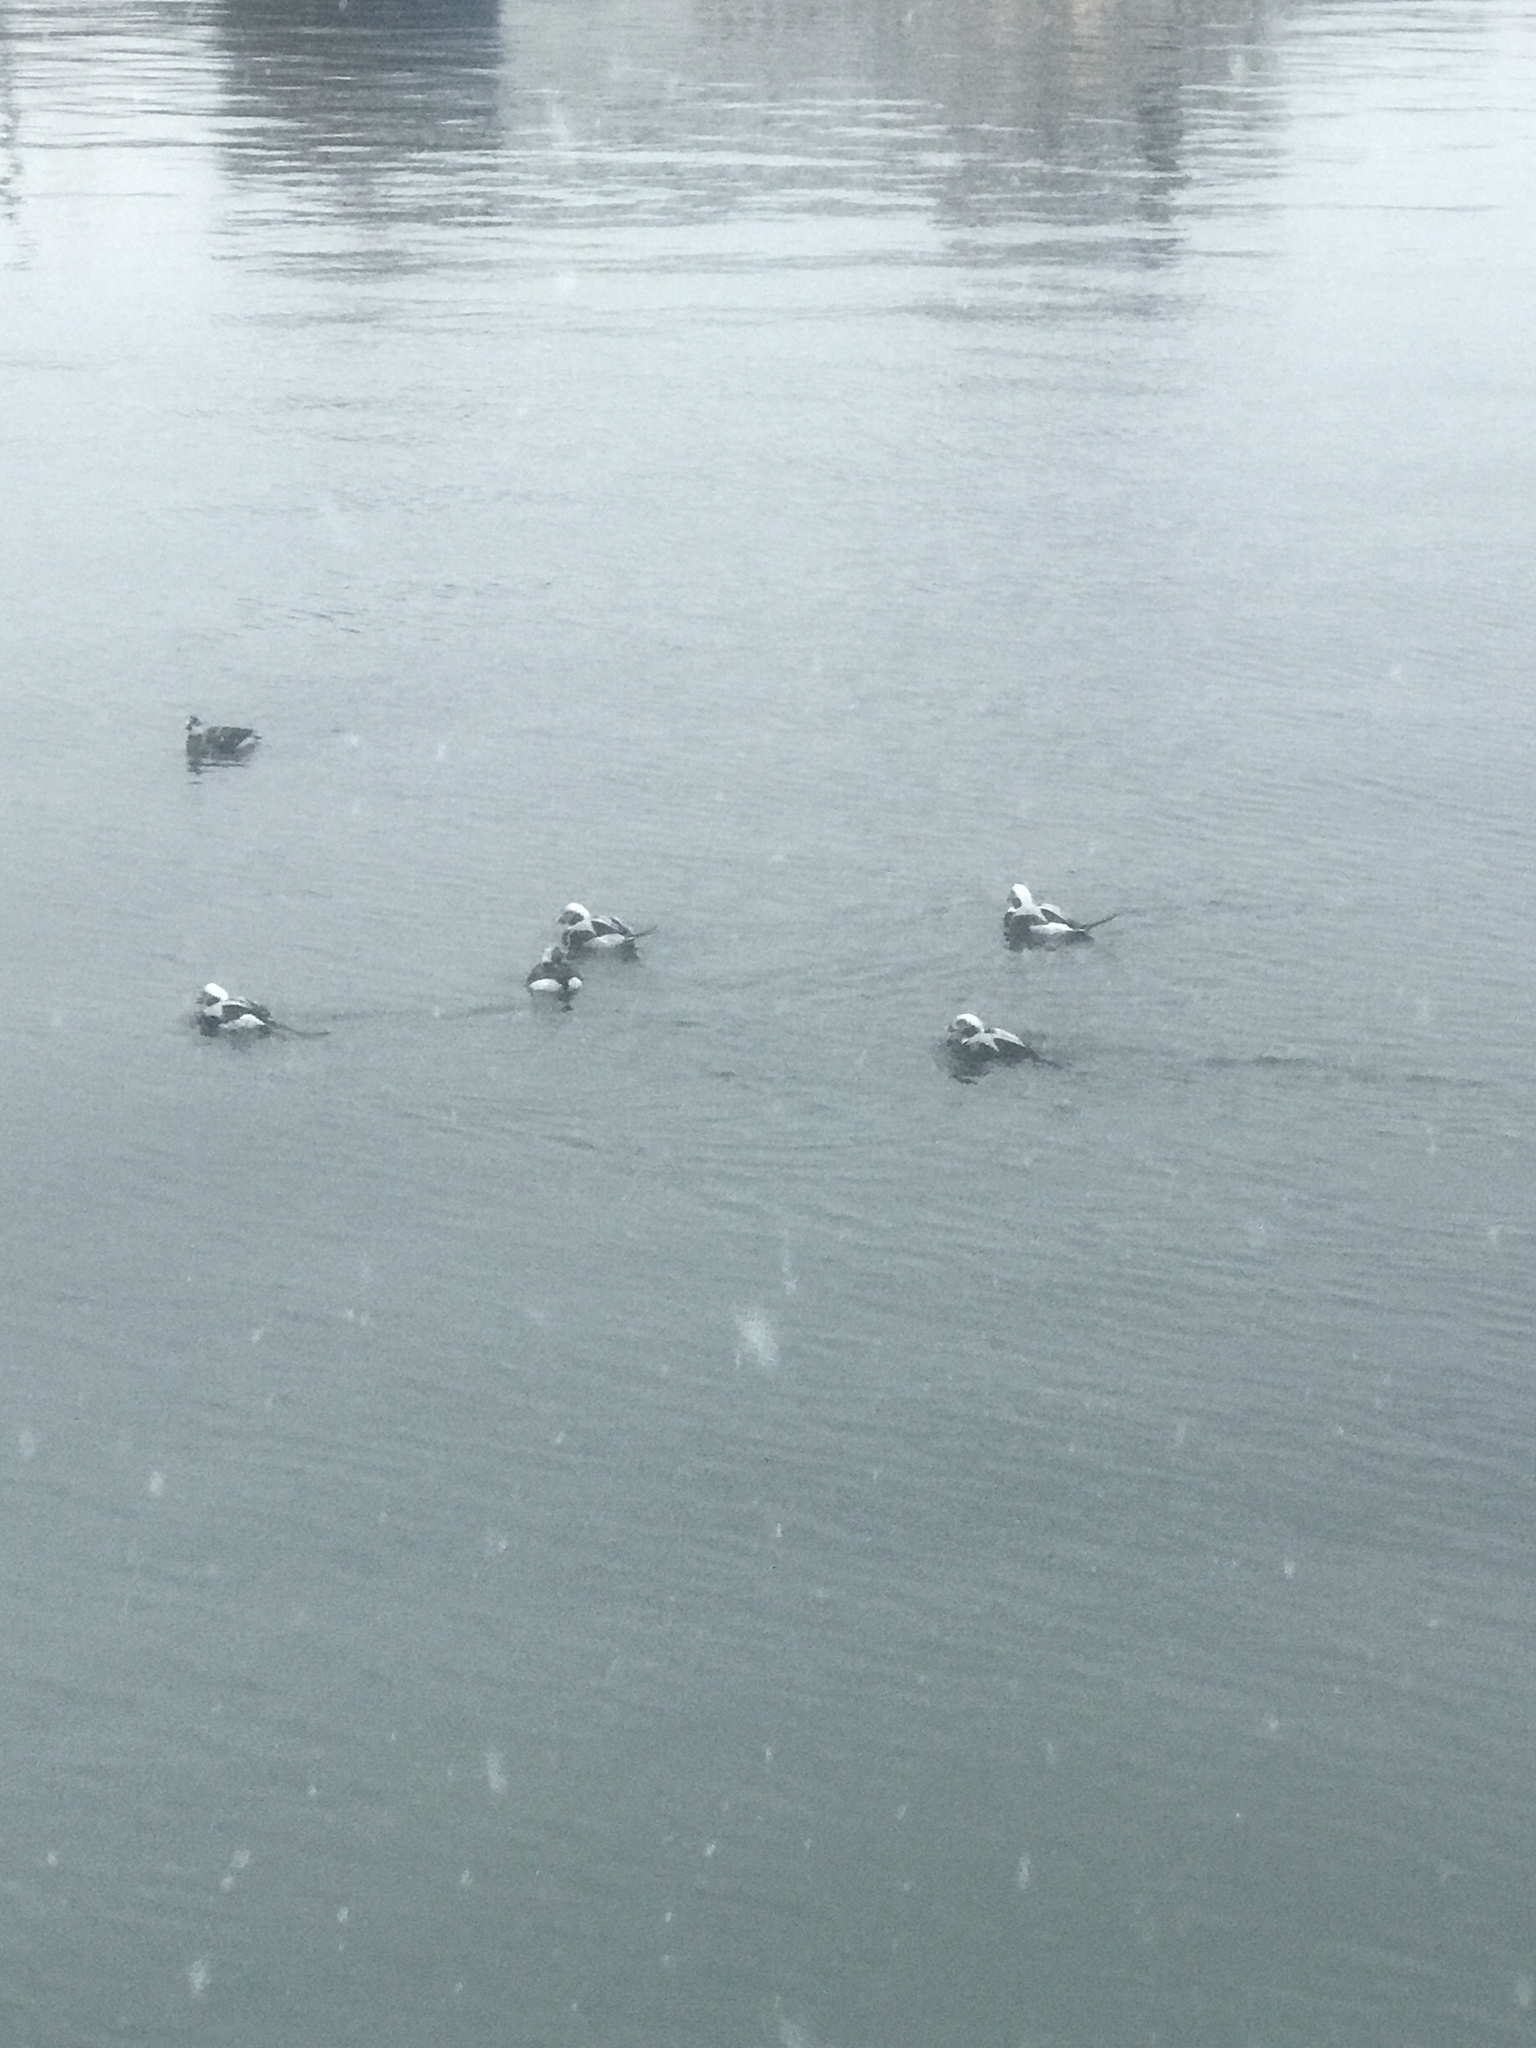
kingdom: Animalia
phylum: Chordata
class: Aves
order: Anseriformes
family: Anatidae
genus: Clangula
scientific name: Clangula hyemalis
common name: Long-tailed duck
